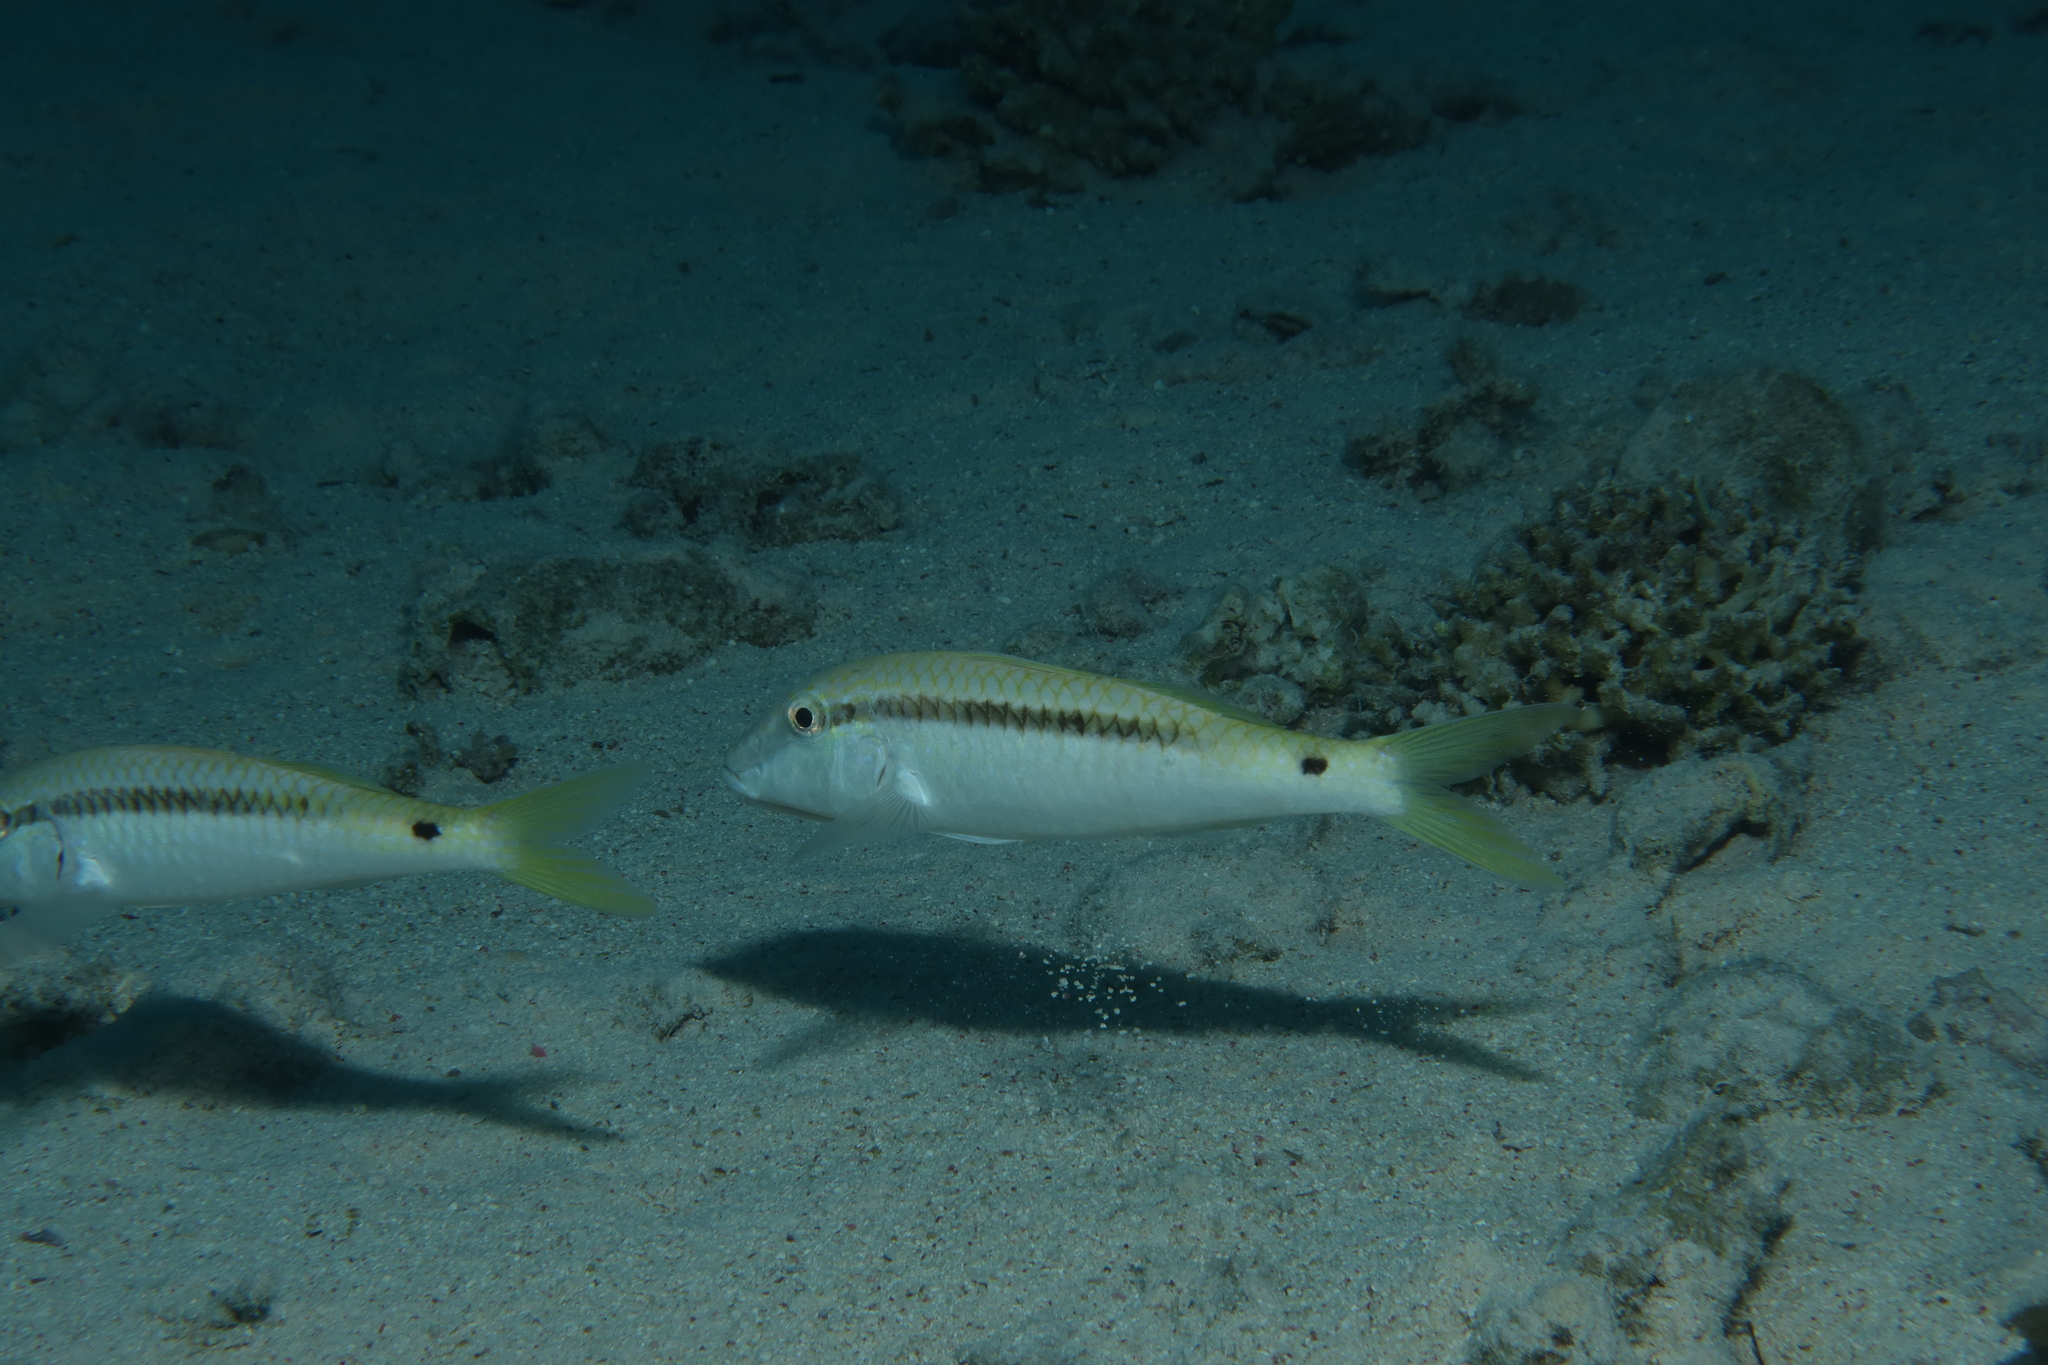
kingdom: Animalia
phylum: Chordata
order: Perciformes
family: Mullidae
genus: Parupeneus
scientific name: Parupeneus forsskali
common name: Red sea goatfish
